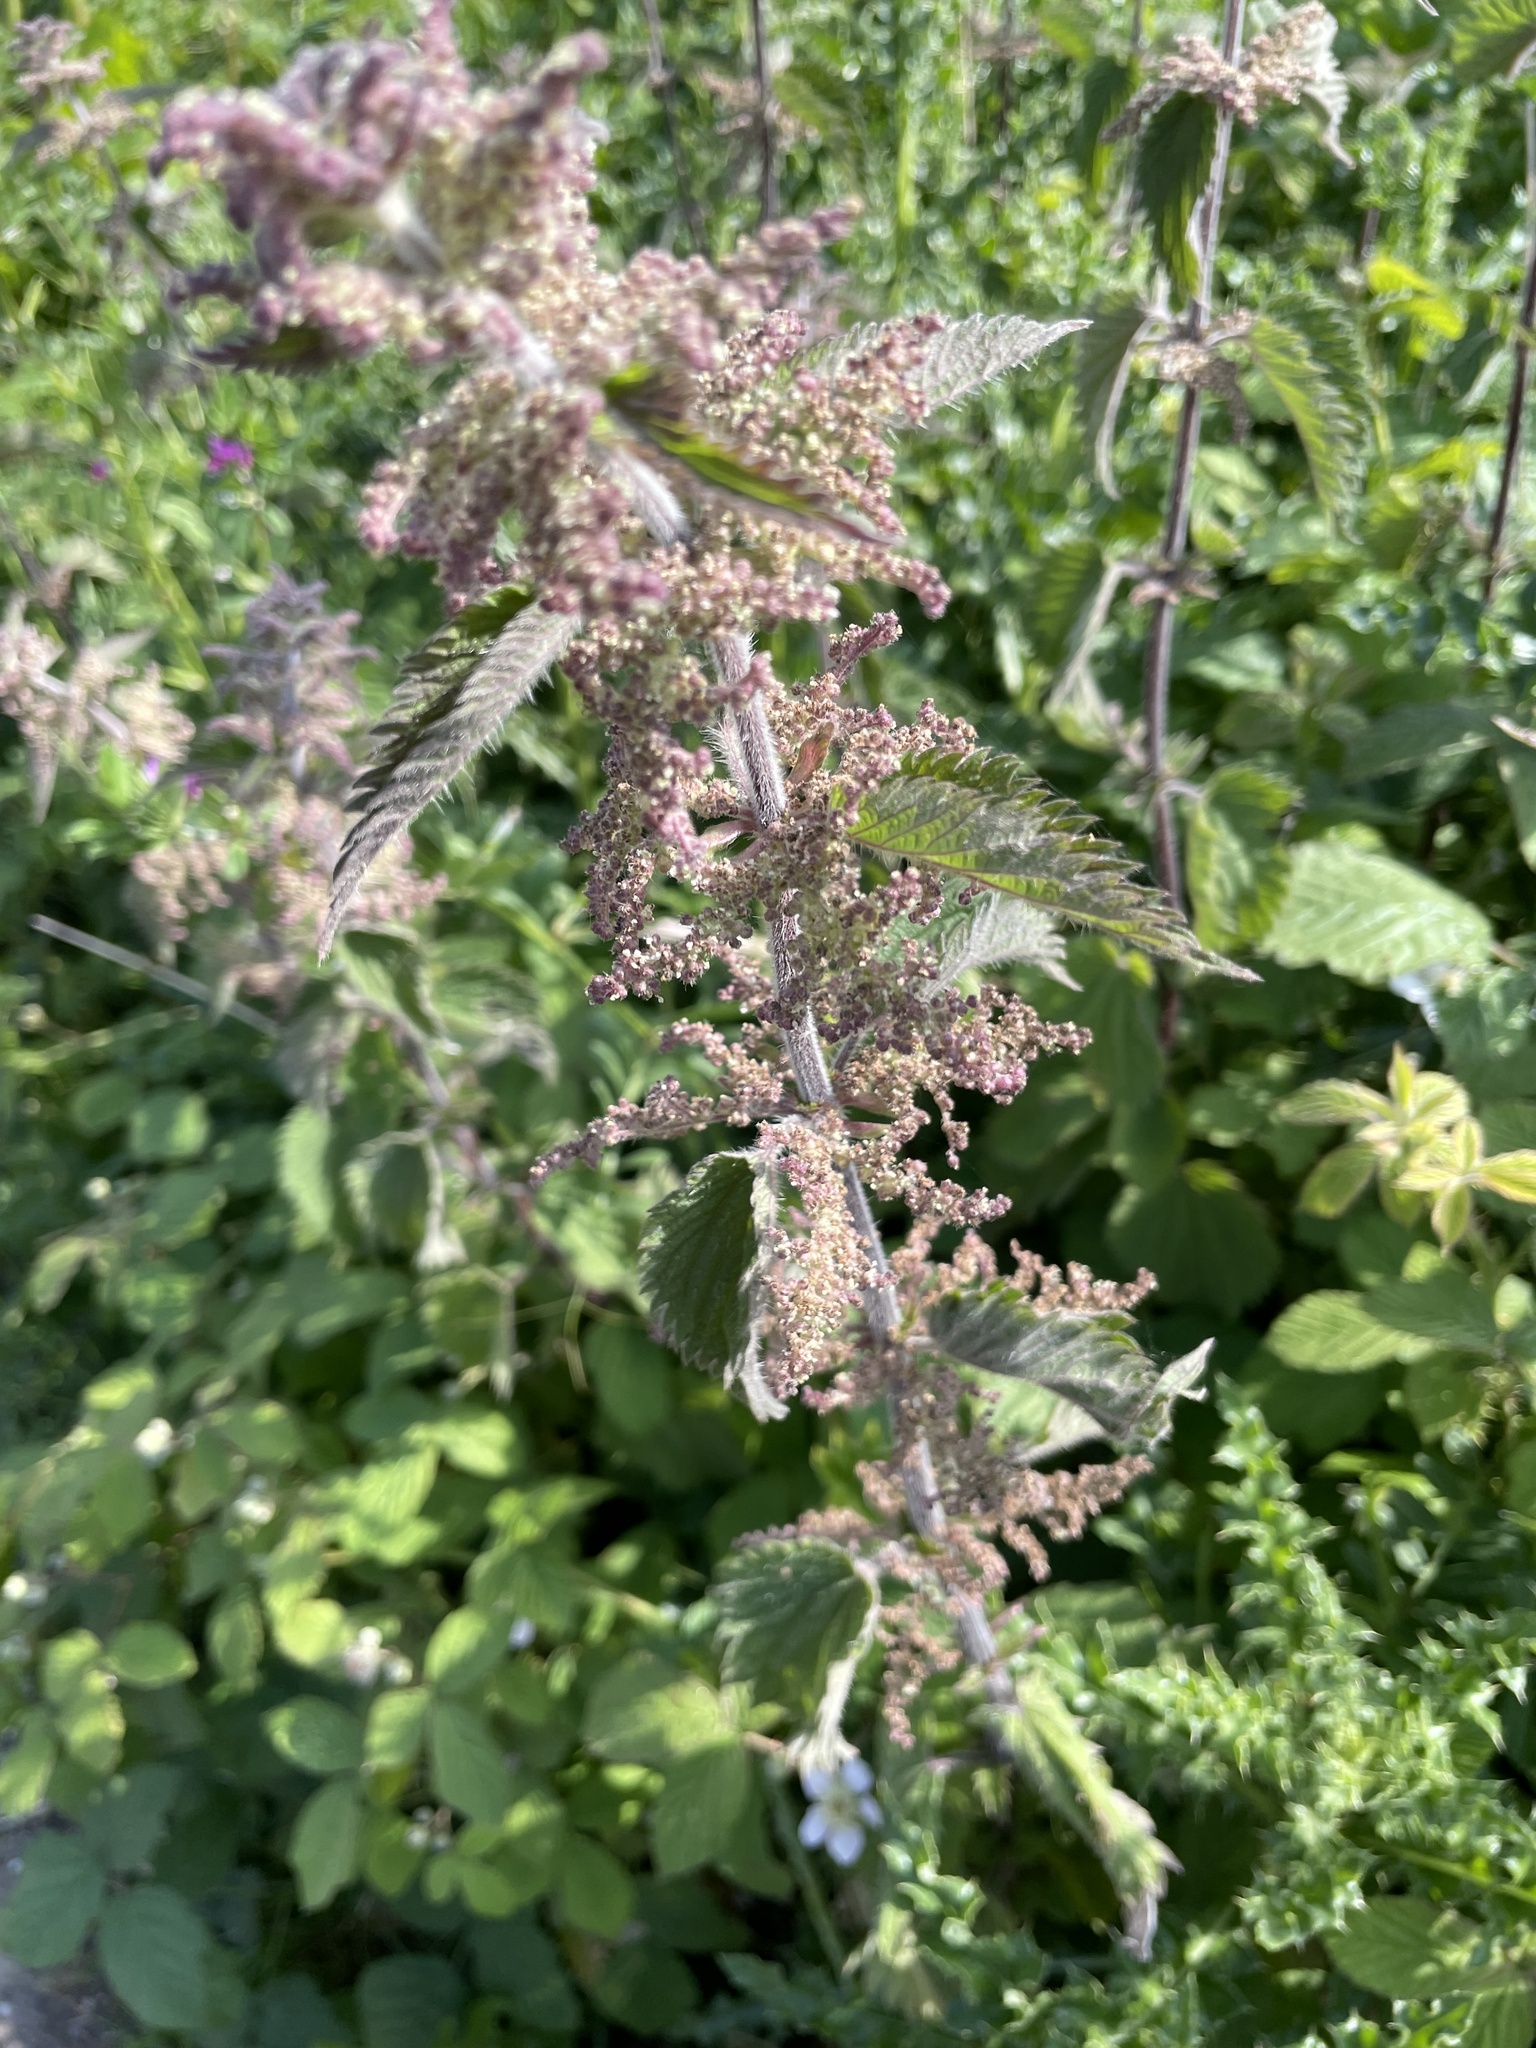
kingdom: Plantae
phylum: Tracheophyta
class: Magnoliopsida
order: Rosales
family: Urticaceae
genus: Urtica
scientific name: Urtica dioica
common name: Common nettle
